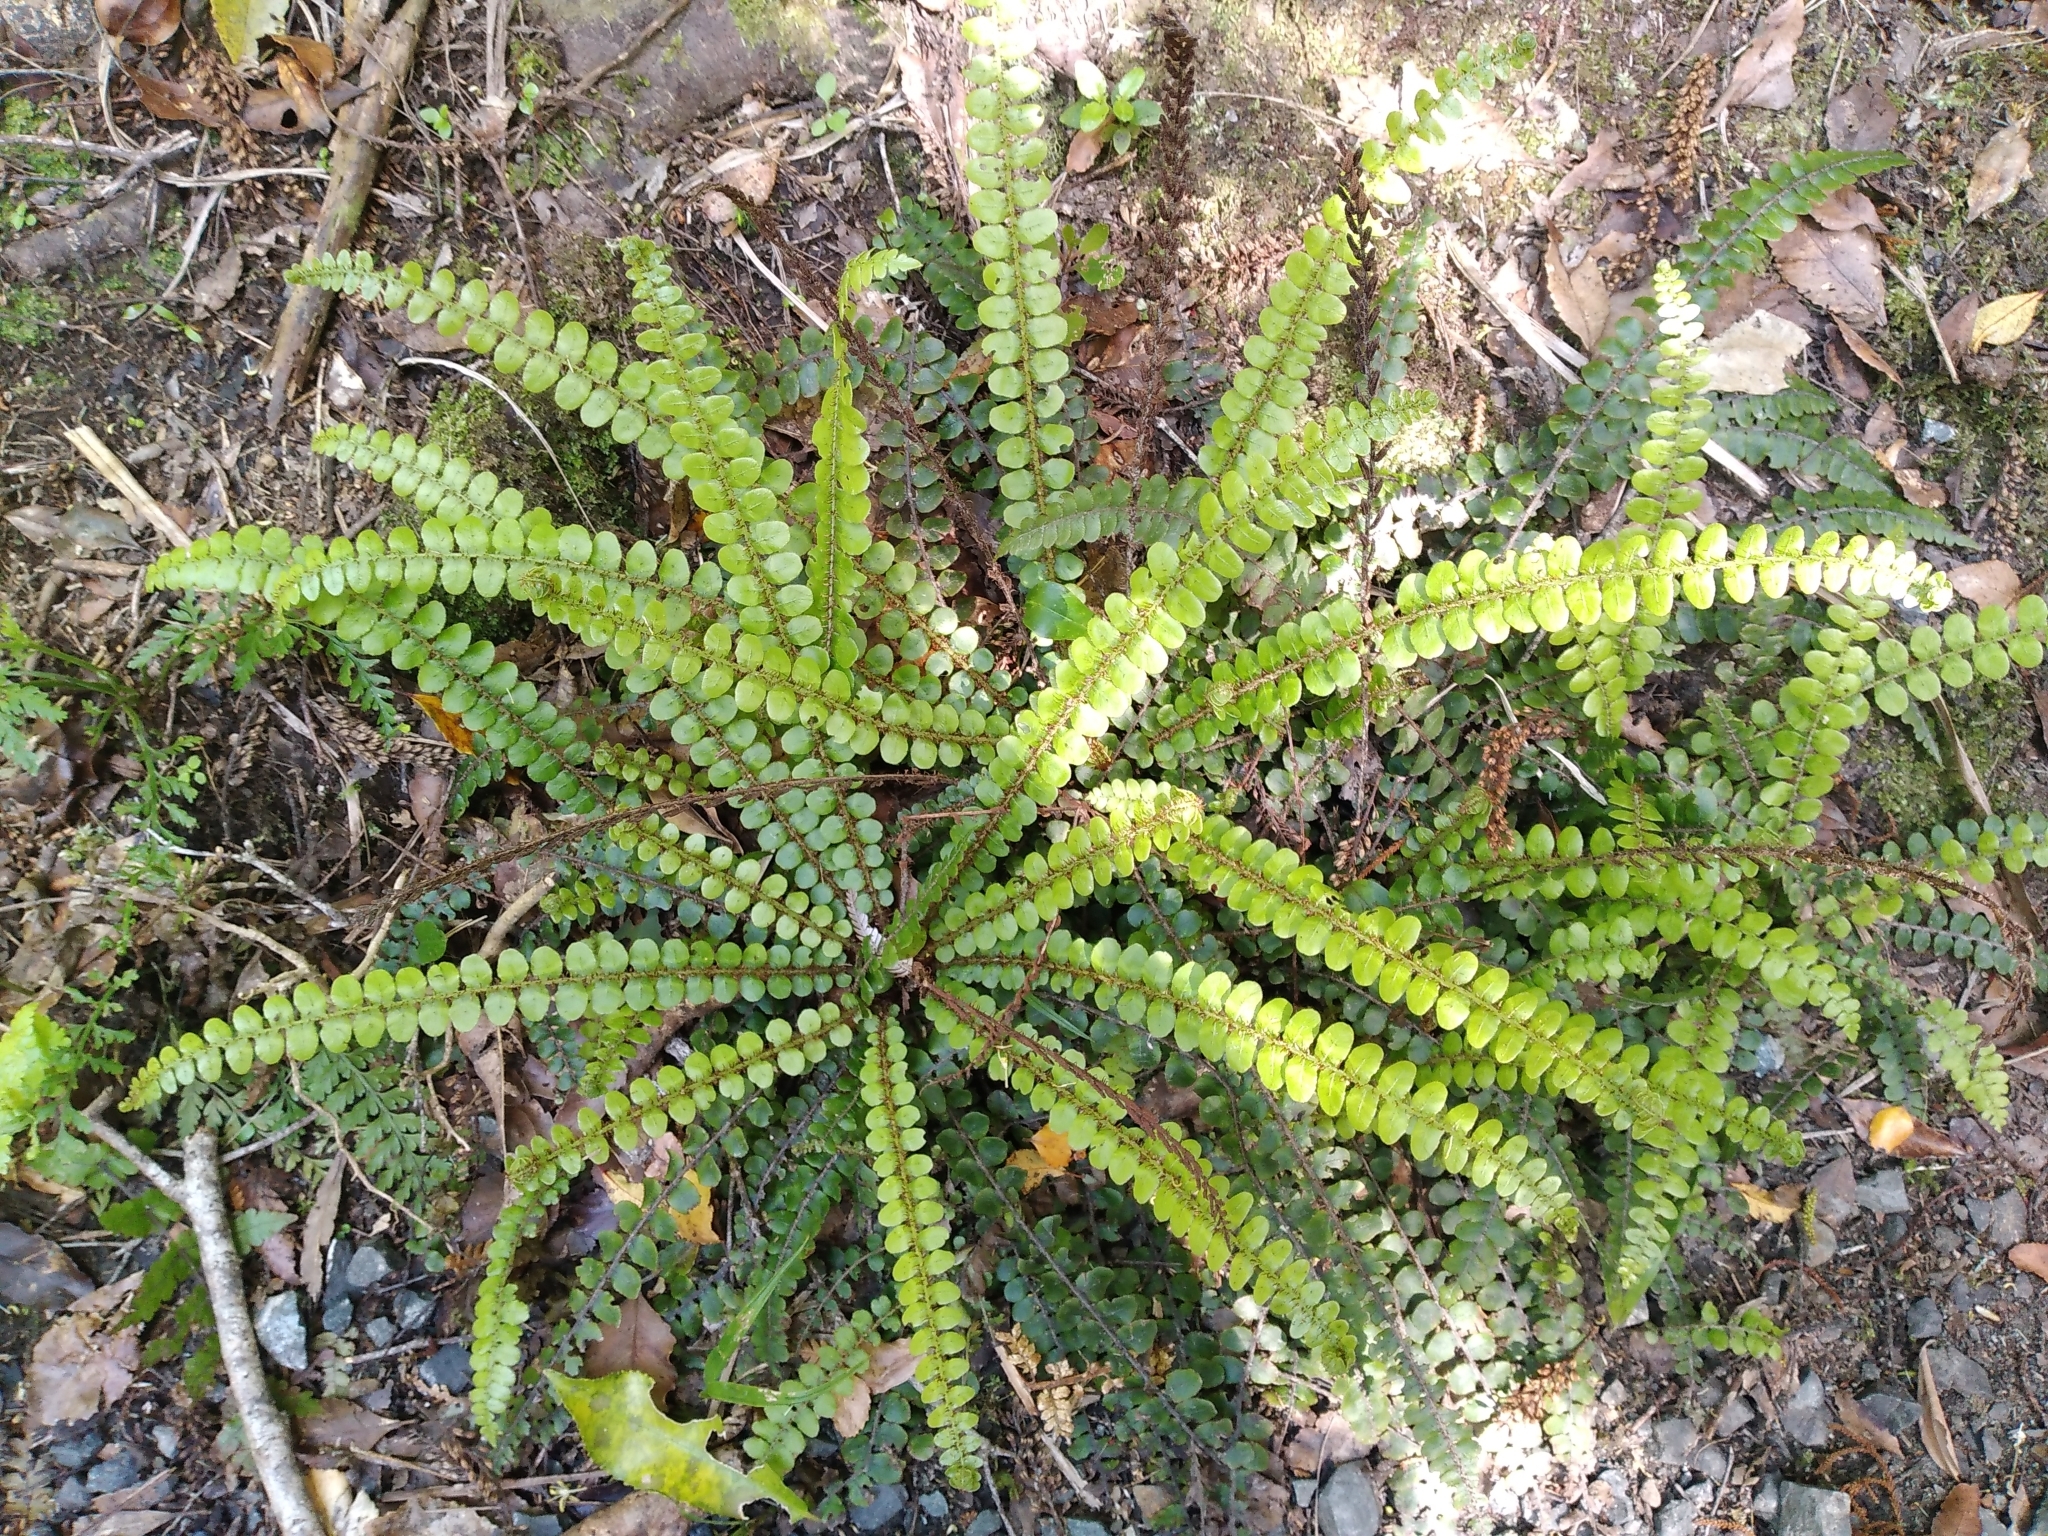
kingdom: Plantae
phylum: Tracheophyta
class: Polypodiopsida
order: Polypodiales
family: Blechnaceae
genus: Cranfillia
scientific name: Cranfillia fluviatilis
